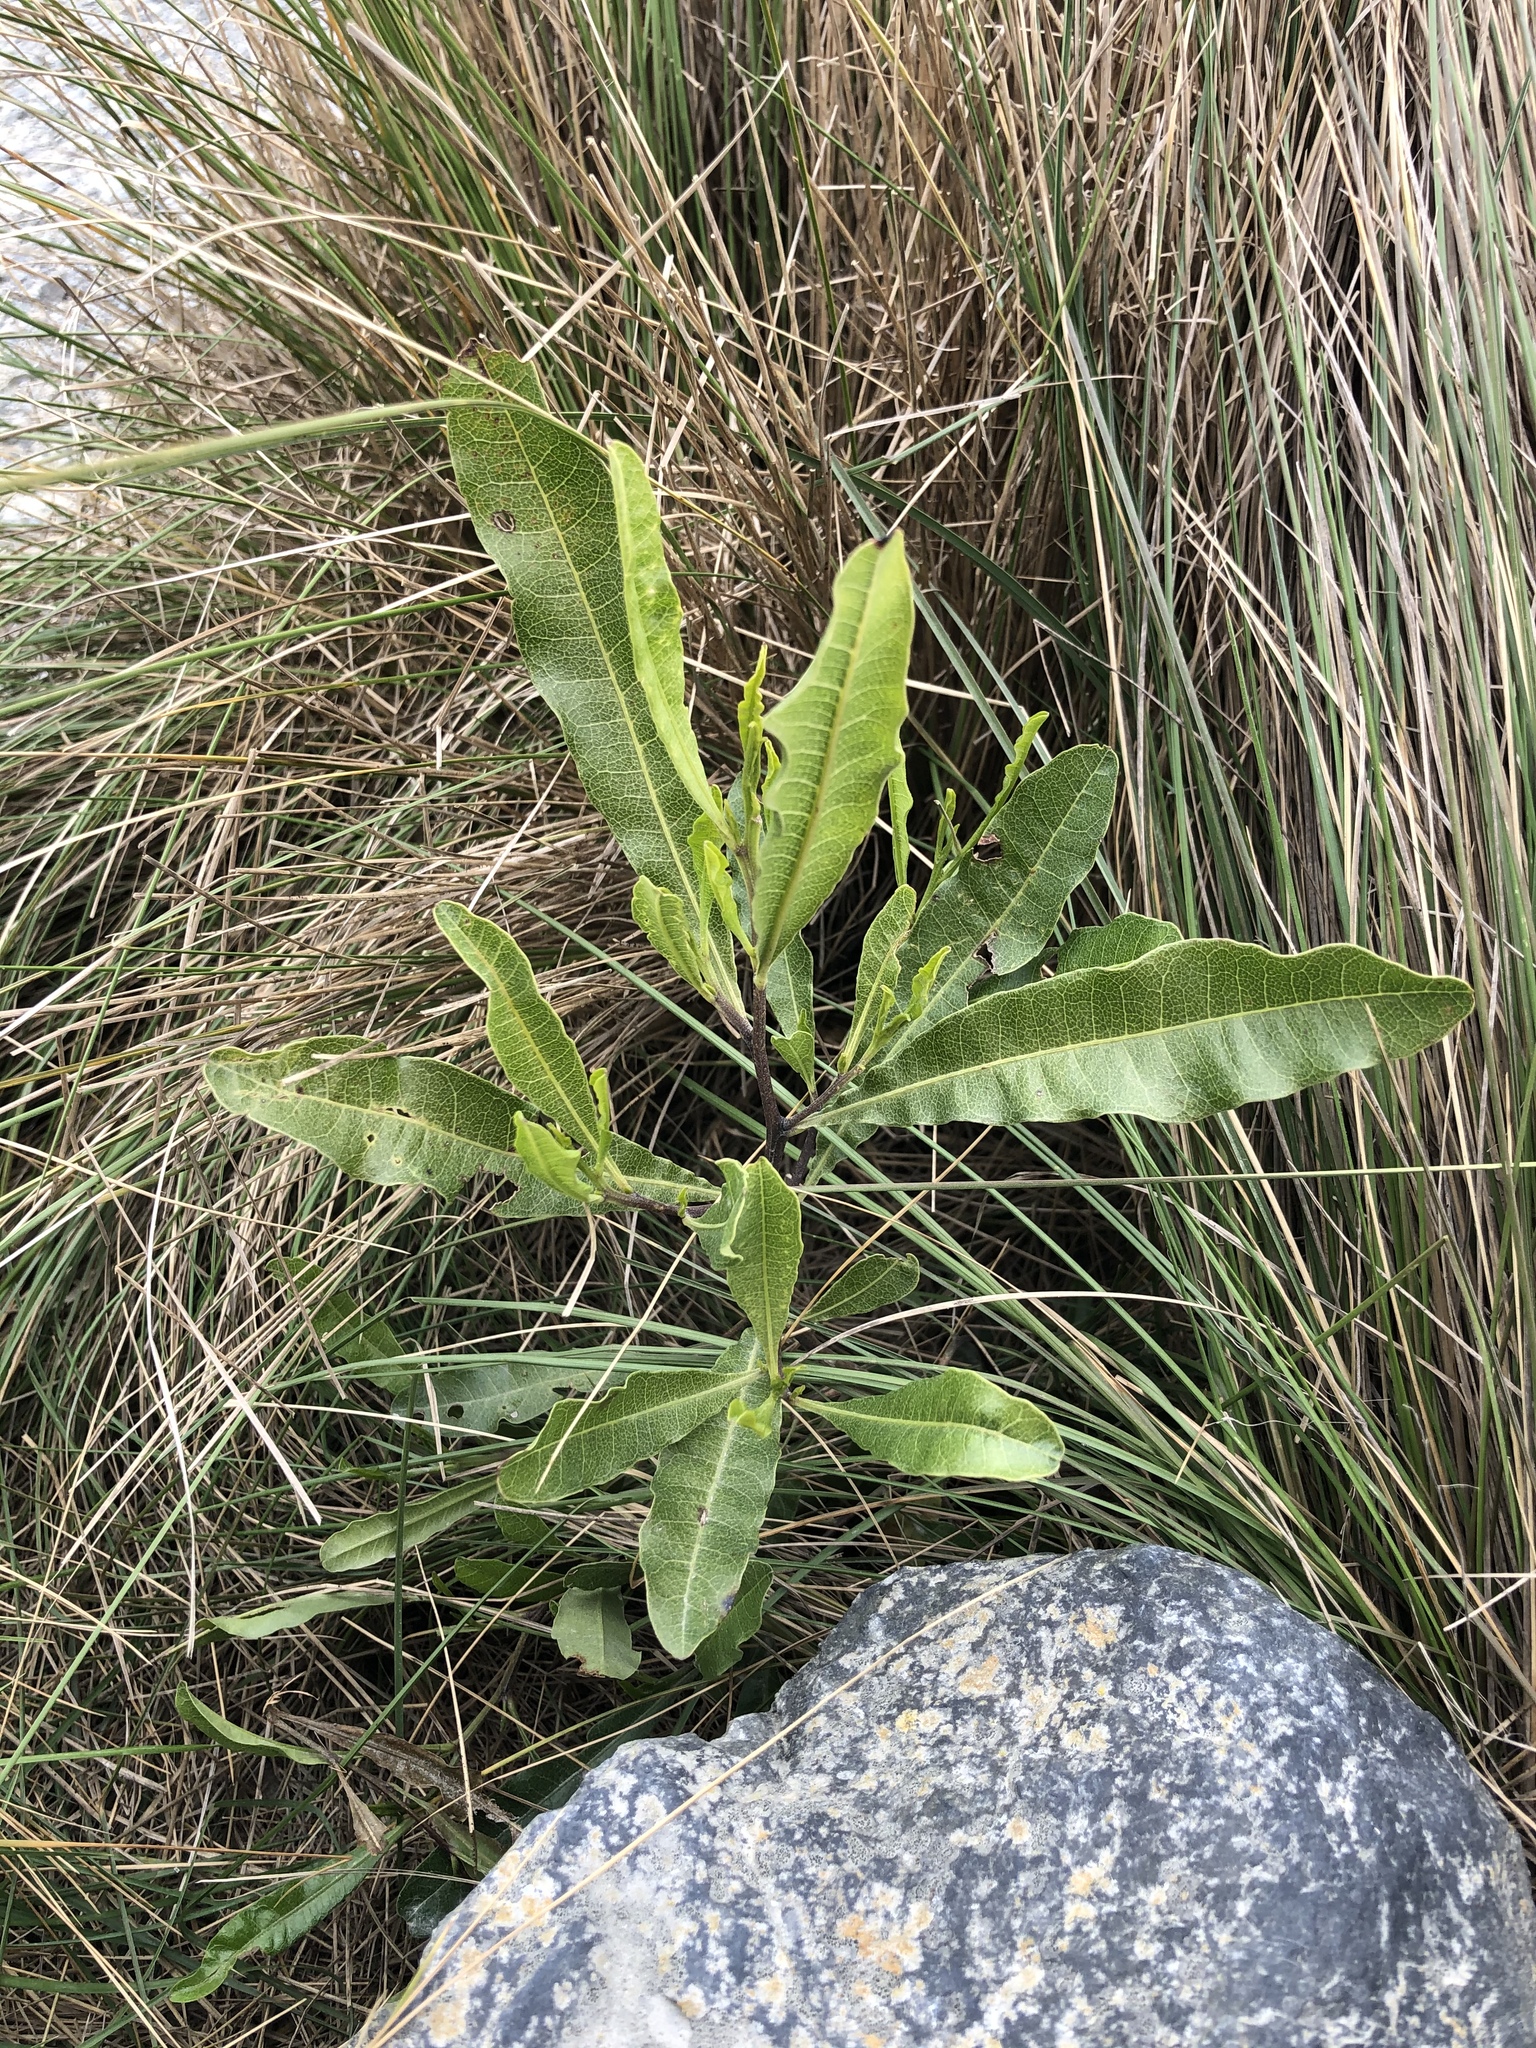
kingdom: Plantae
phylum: Tracheophyta
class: Magnoliopsida
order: Sapindales
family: Sapindaceae
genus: Dodonaea
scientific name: Dodonaea viscosa
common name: Hopbush
